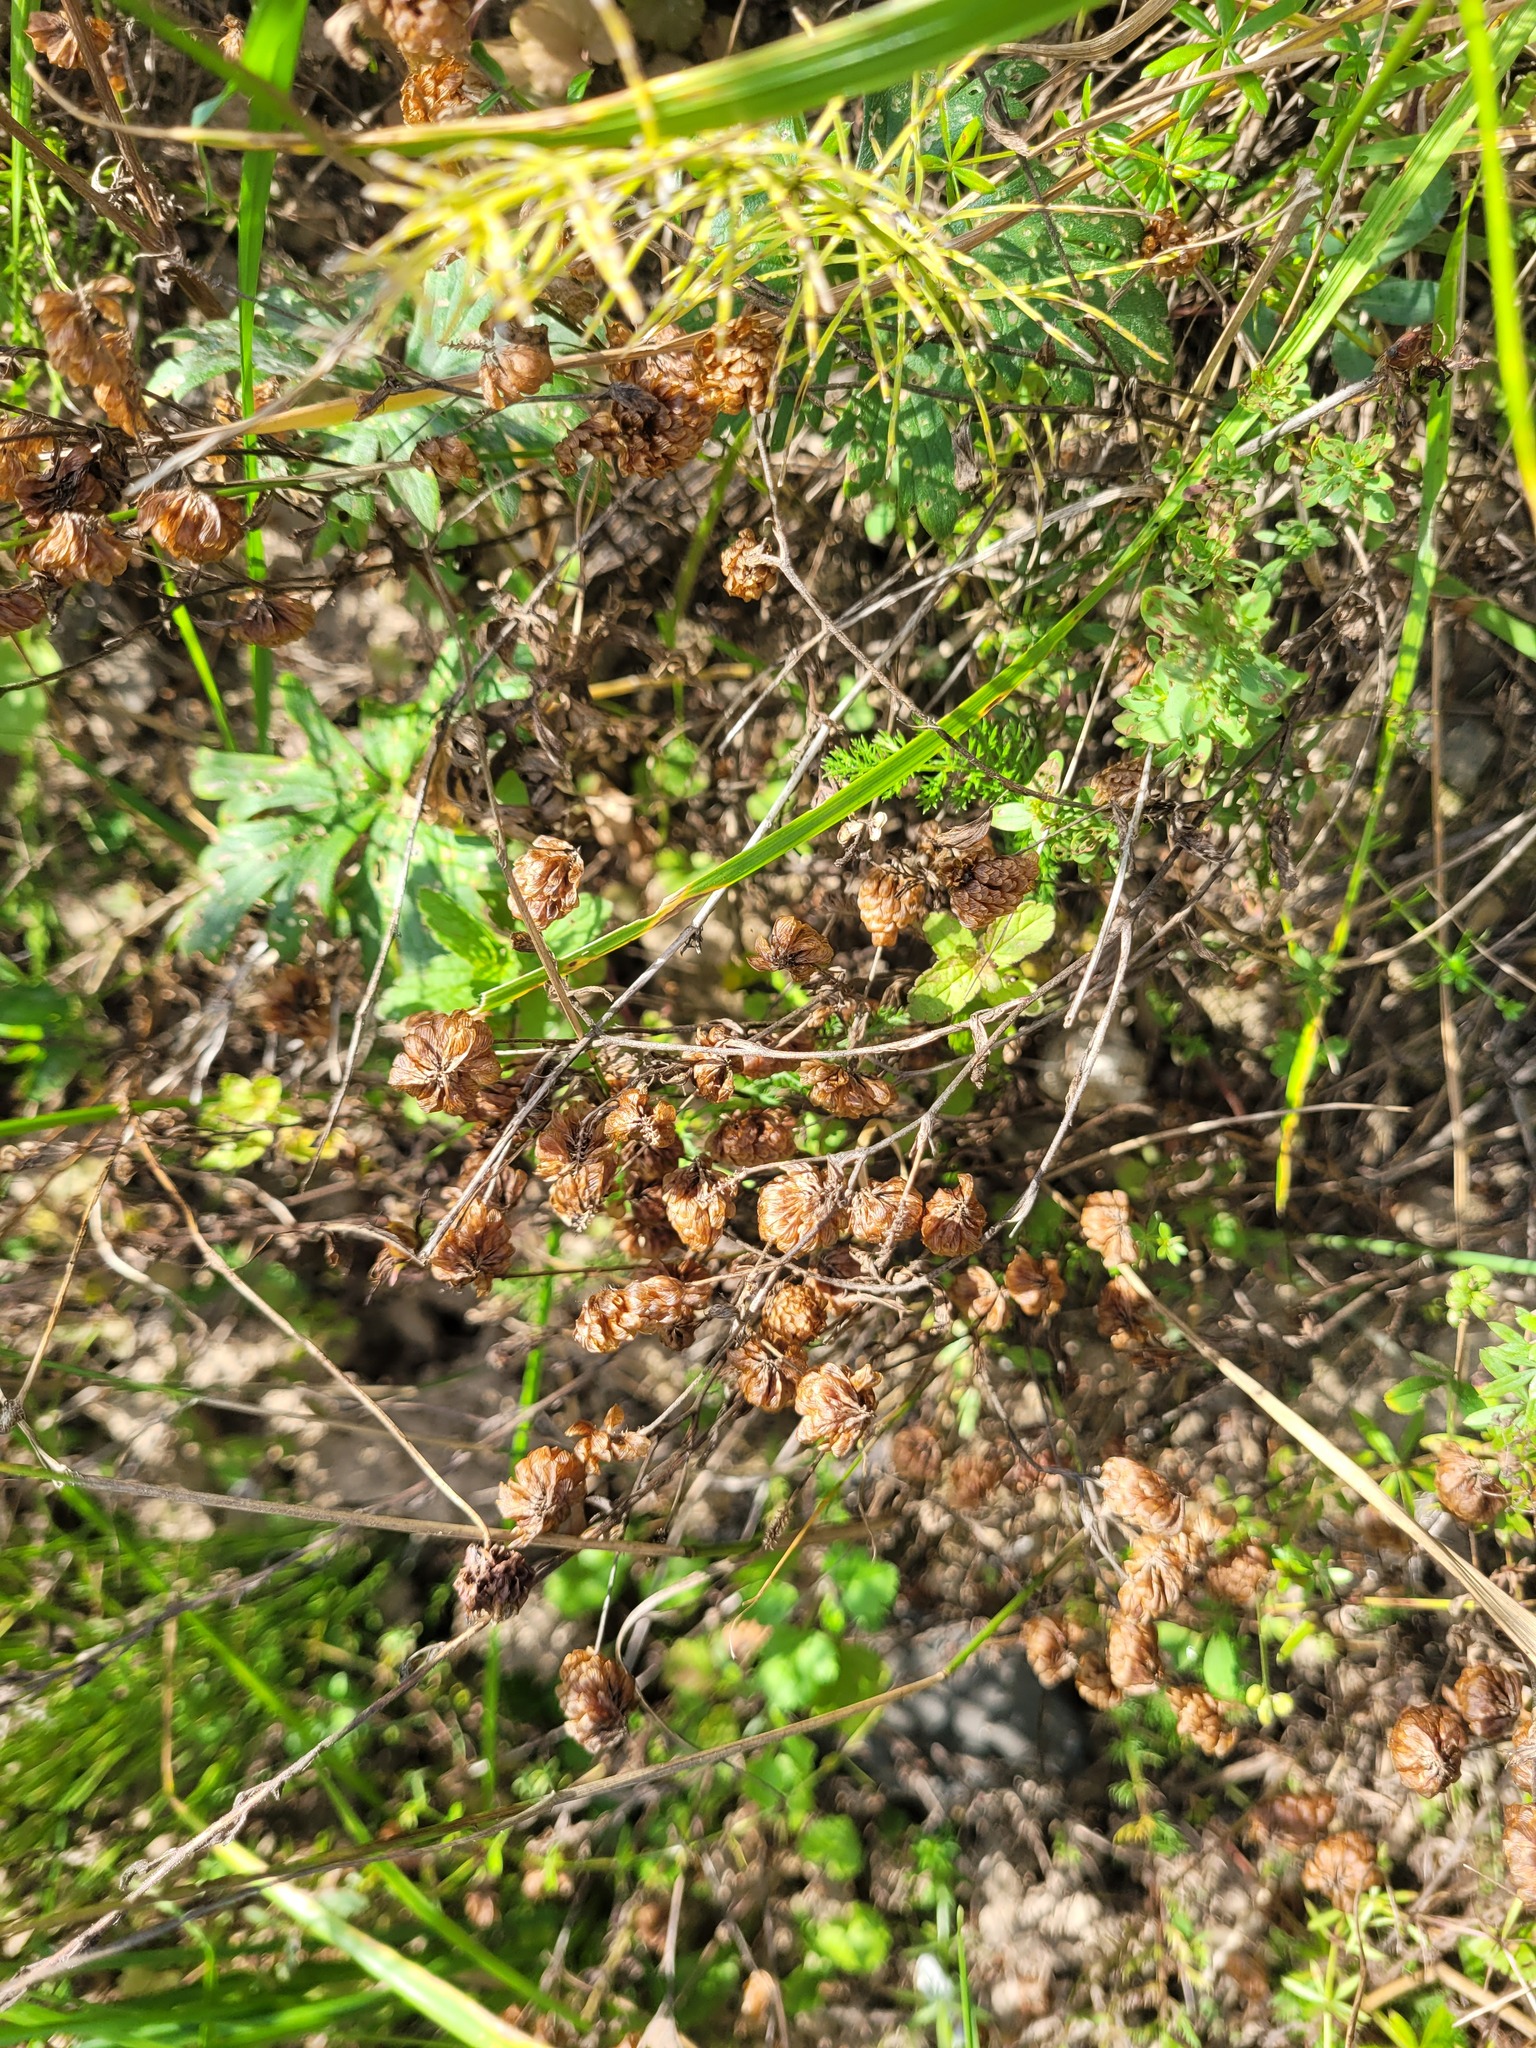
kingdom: Plantae
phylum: Tracheophyta
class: Magnoliopsida
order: Fabales
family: Fabaceae
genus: Trifolium
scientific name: Trifolium aureum
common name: Golden clover
